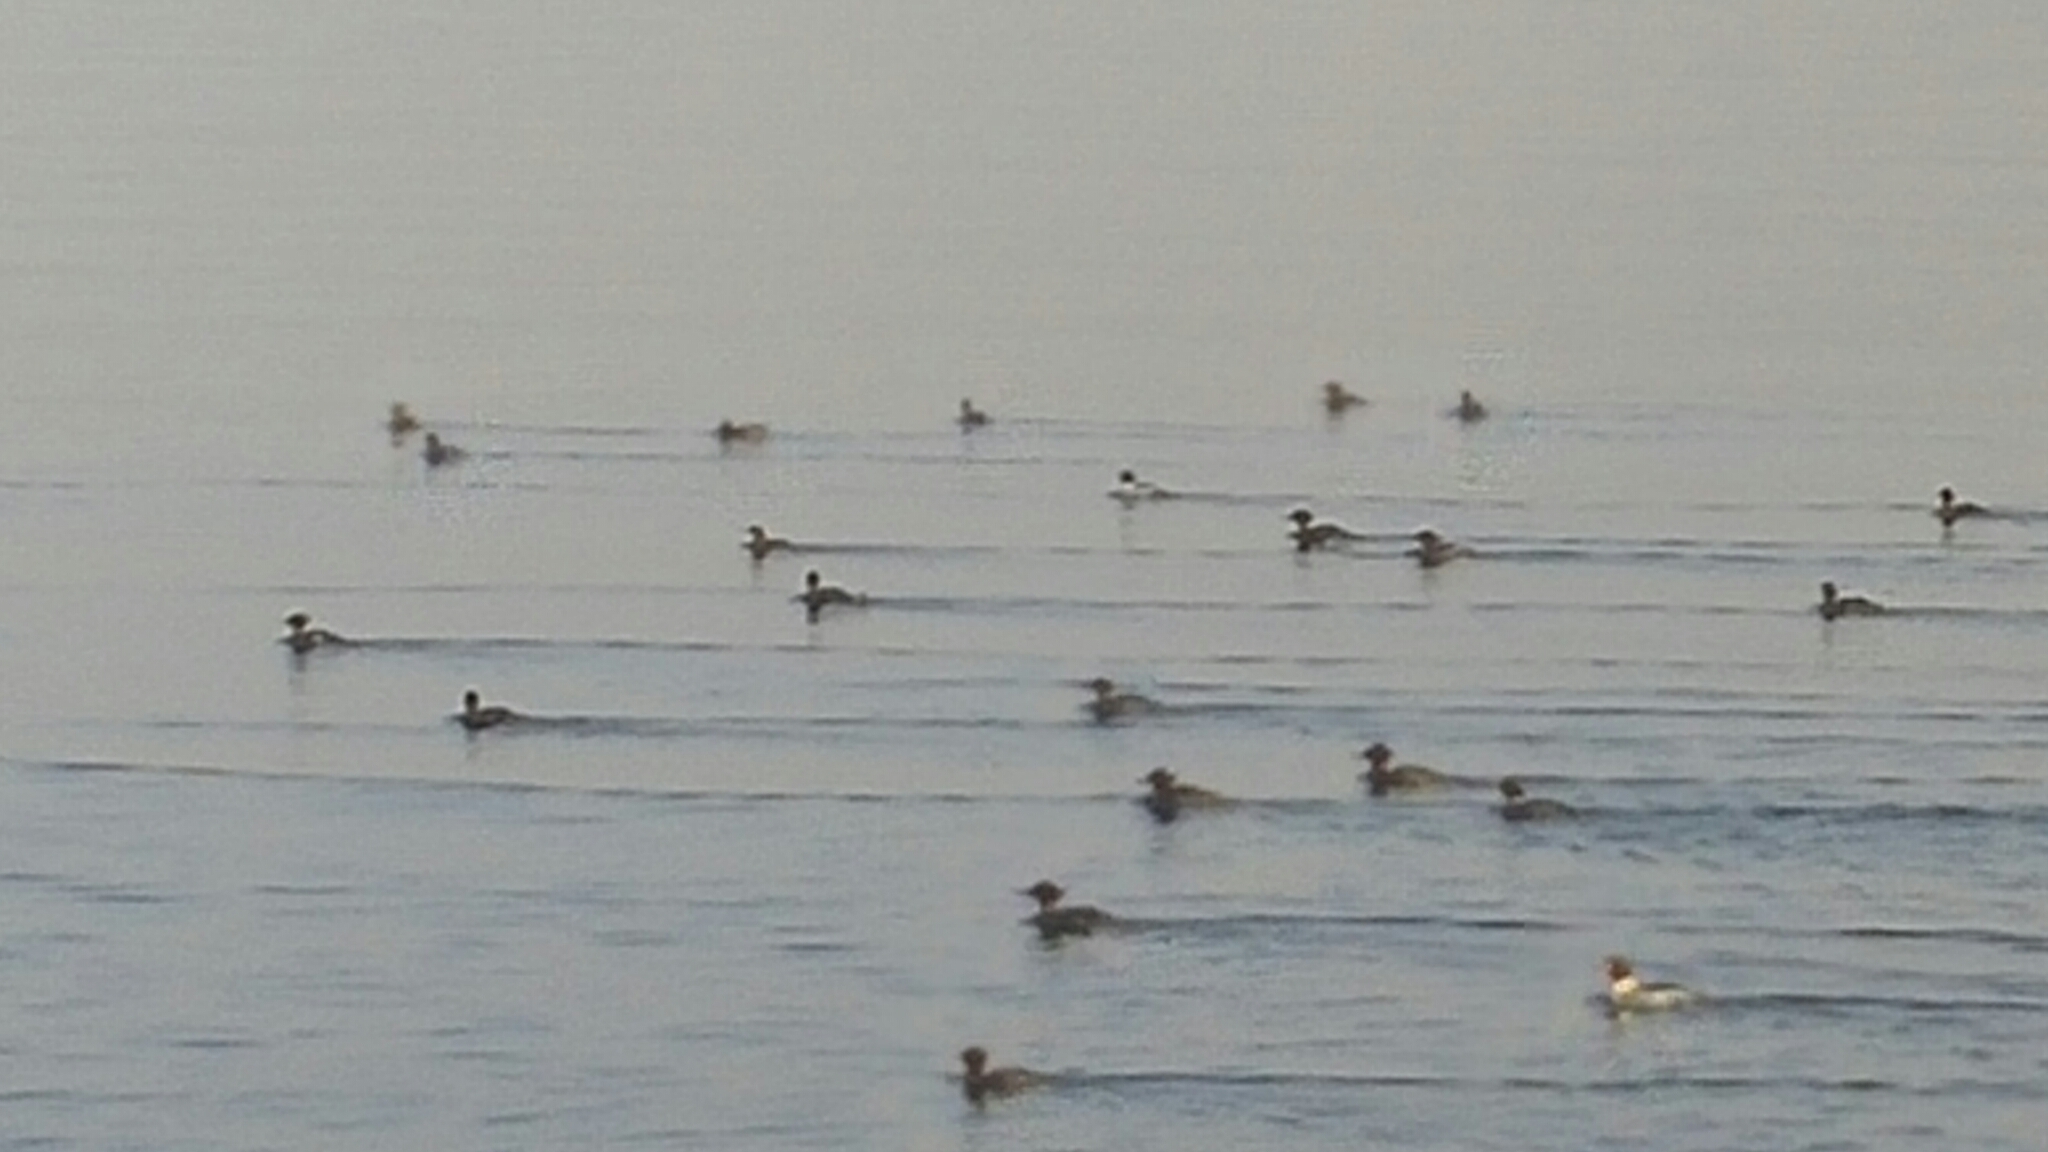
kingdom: Animalia
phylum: Chordata
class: Aves
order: Anseriformes
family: Anatidae
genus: Mergus
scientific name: Mergus merganser
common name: Common merganser
